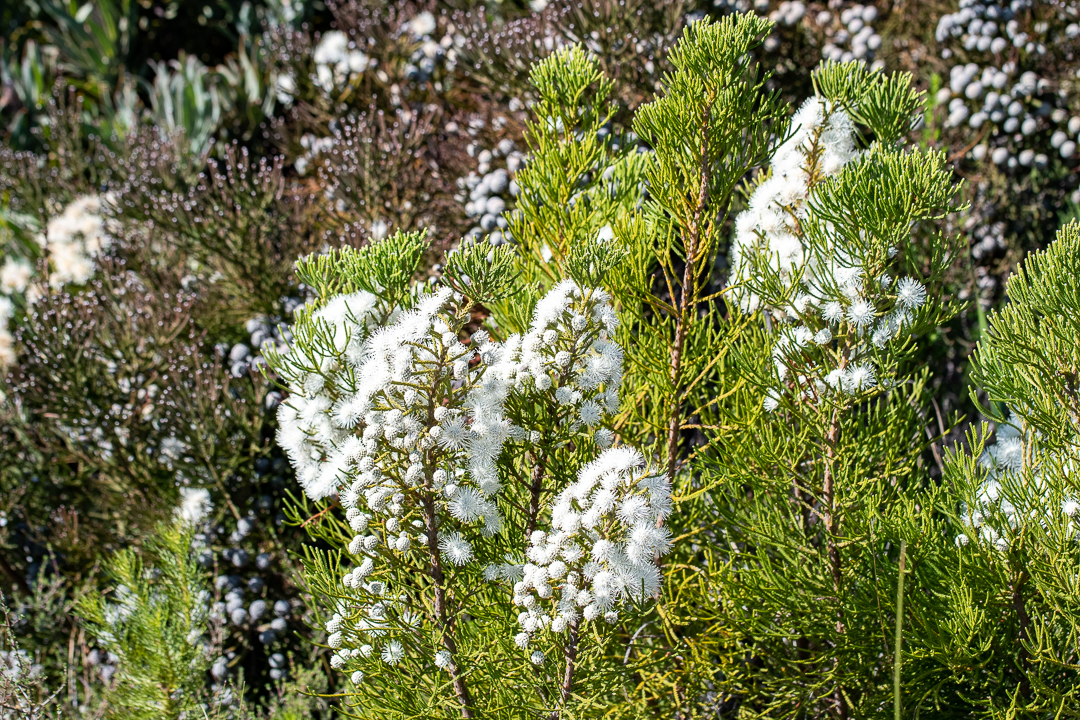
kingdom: Plantae
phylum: Tracheophyta
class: Magnoliopsida
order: Bruniales
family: Bruniaceae
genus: Brunia
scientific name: Brunia noduliflora
